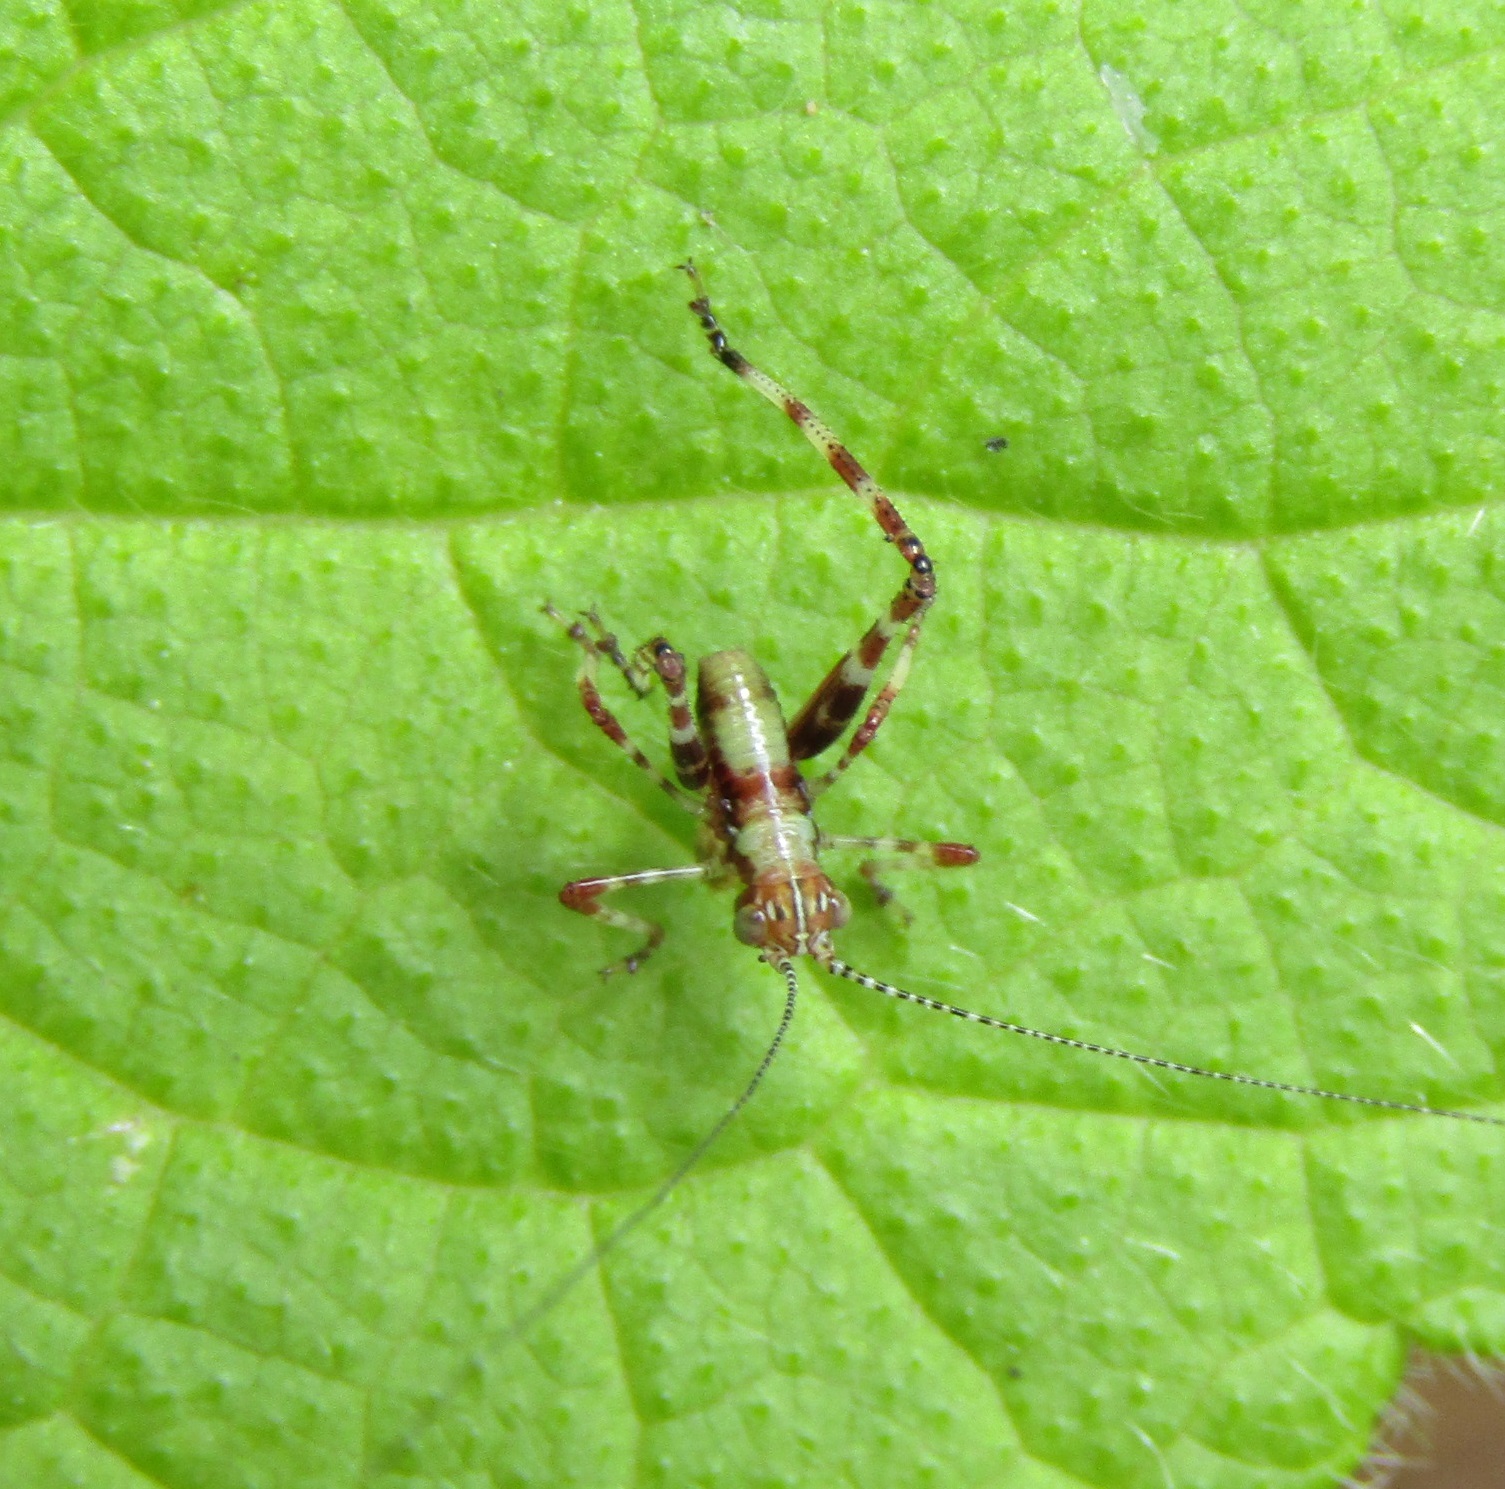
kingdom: Animalia
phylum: Arthropoda
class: Insecta
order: Orthoptera
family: Tettigoniidae
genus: Caedicia
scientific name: Caedicia simplex
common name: Common garden katydid
